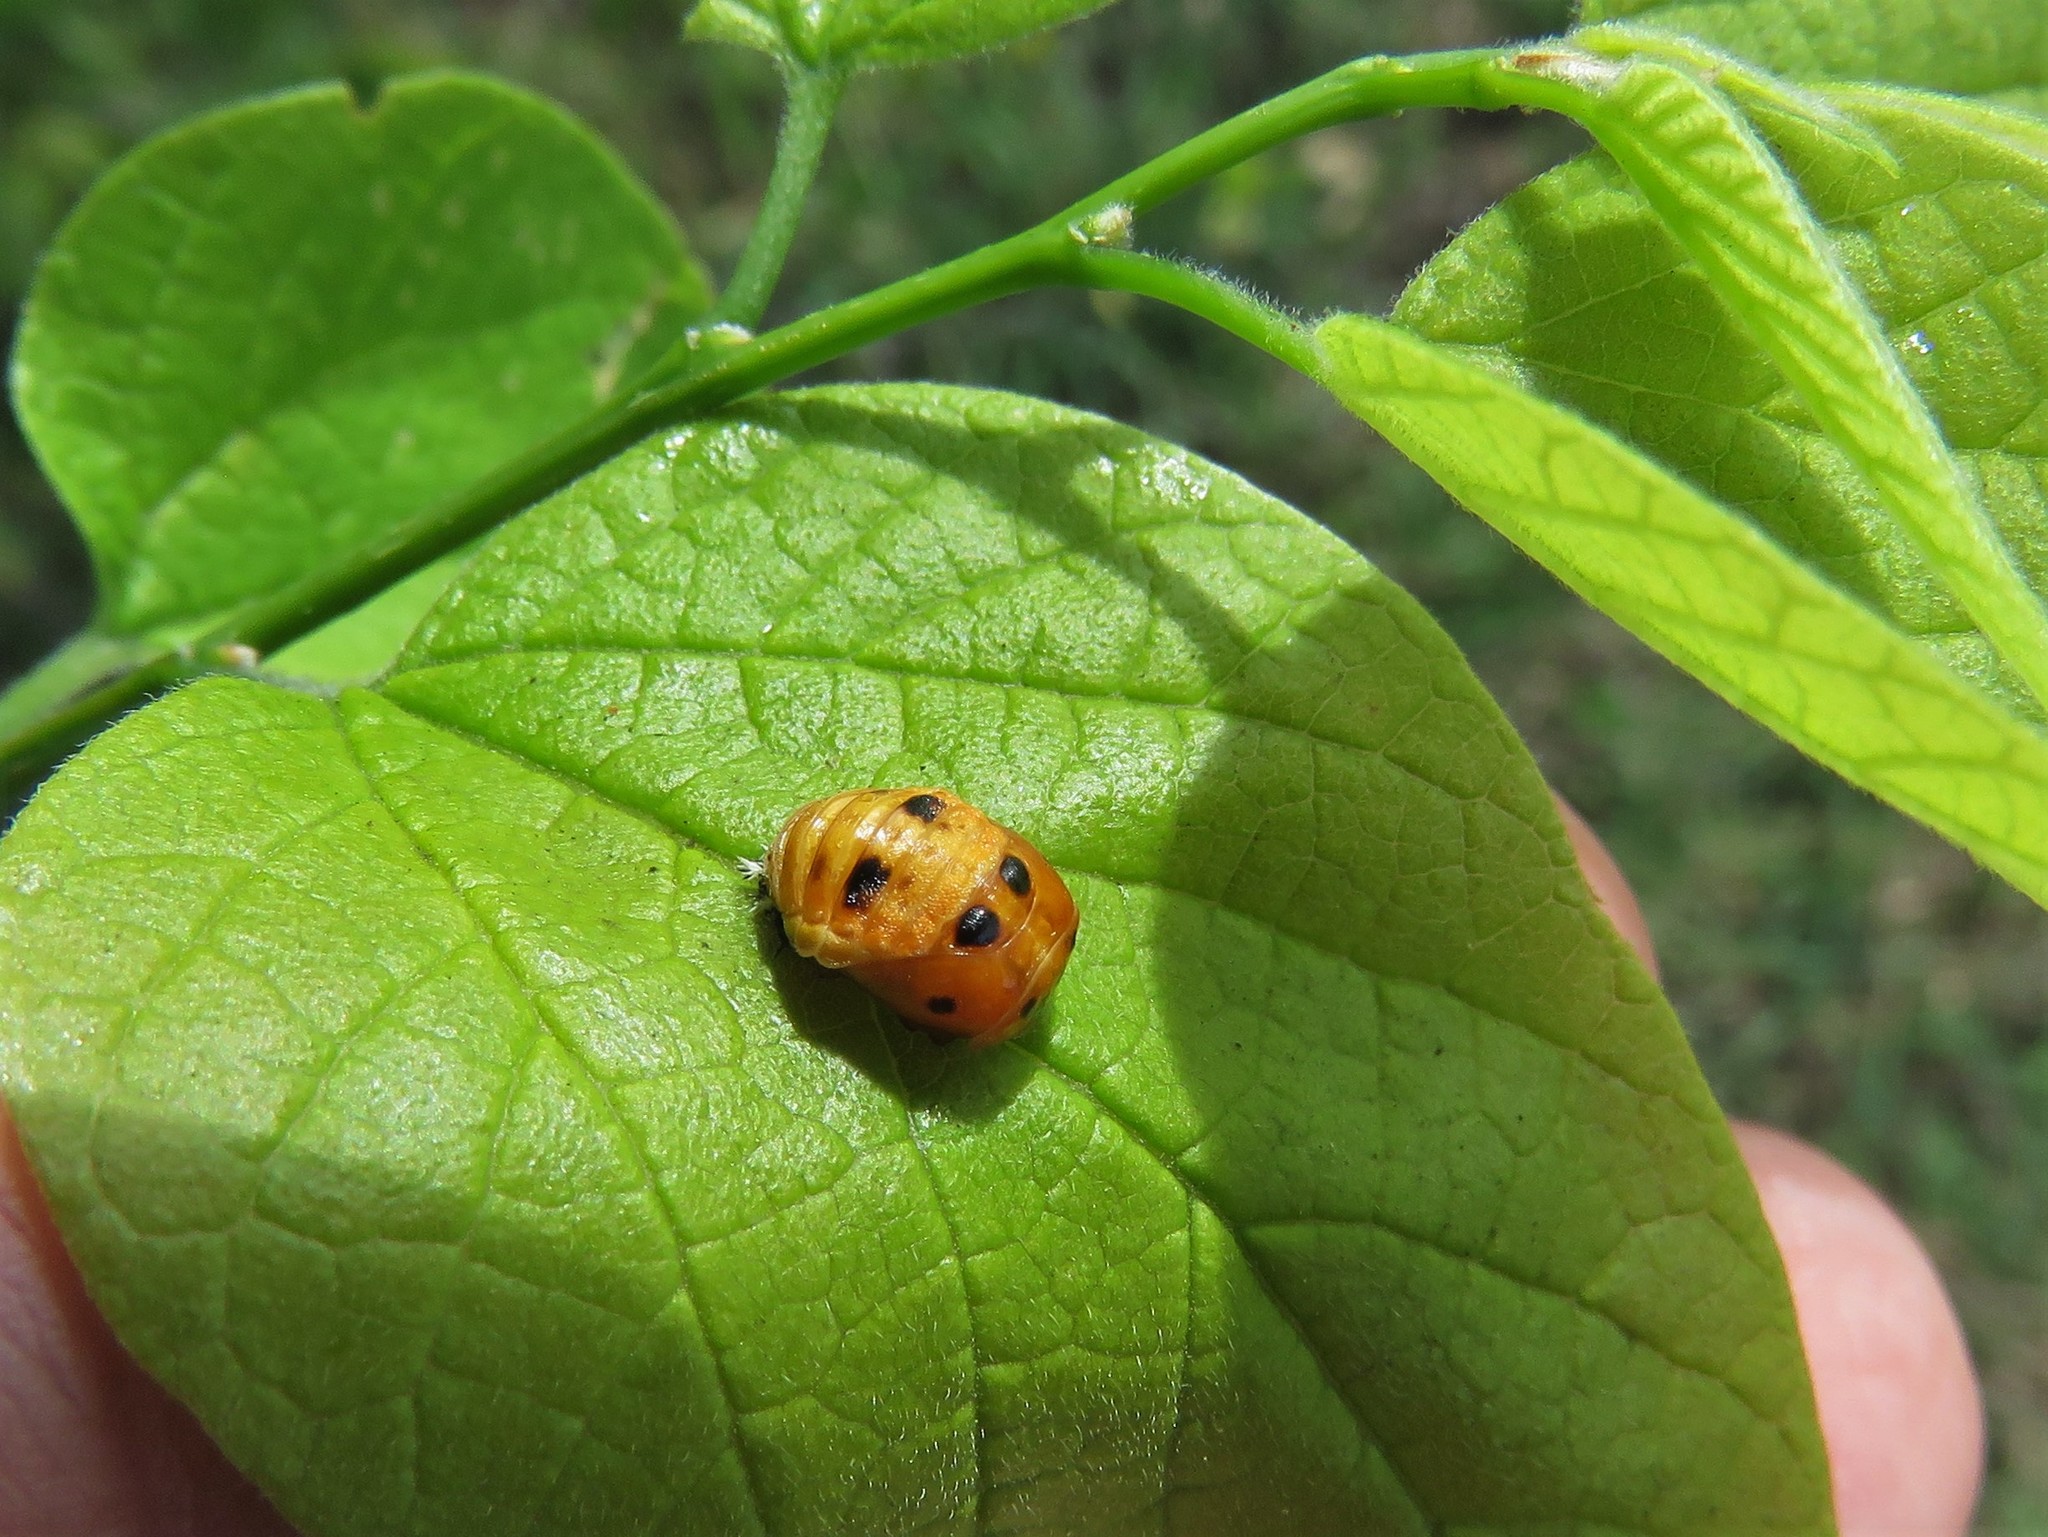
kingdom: Animalia
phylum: Arthropoda
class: Insecta
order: Coleoptera
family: Coccinellidae
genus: Harmonia
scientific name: Harmonia axyridis
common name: Harlequin ladybird
